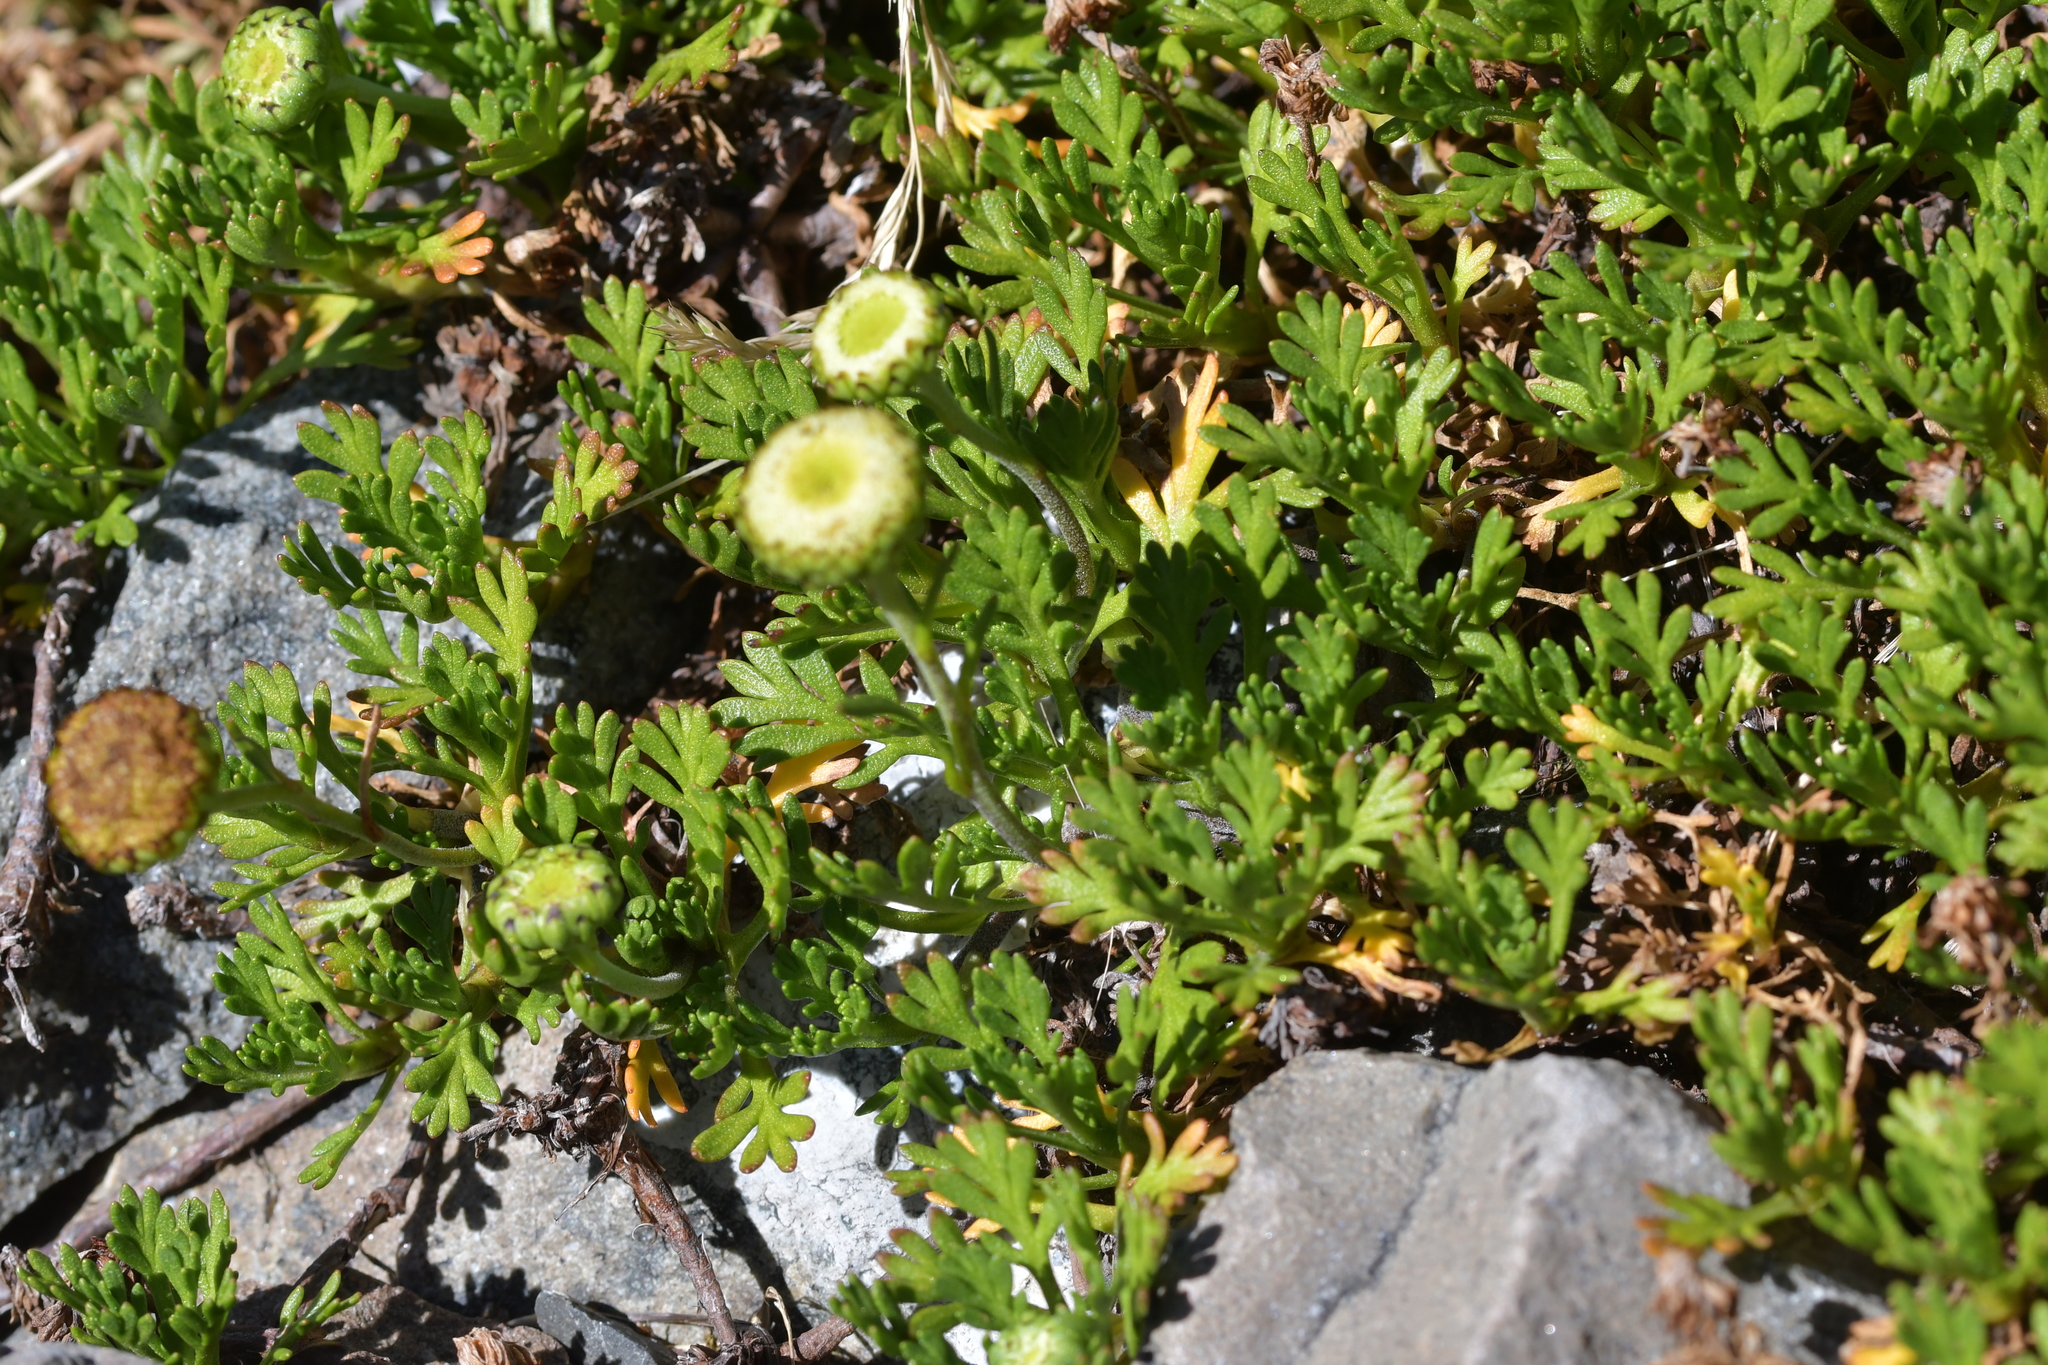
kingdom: Plantae
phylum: Tracheophyta
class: Magnoliopsida
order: Asterales
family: Asteraceae
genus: Leptinella
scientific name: Leptinella pyrethrifolia
